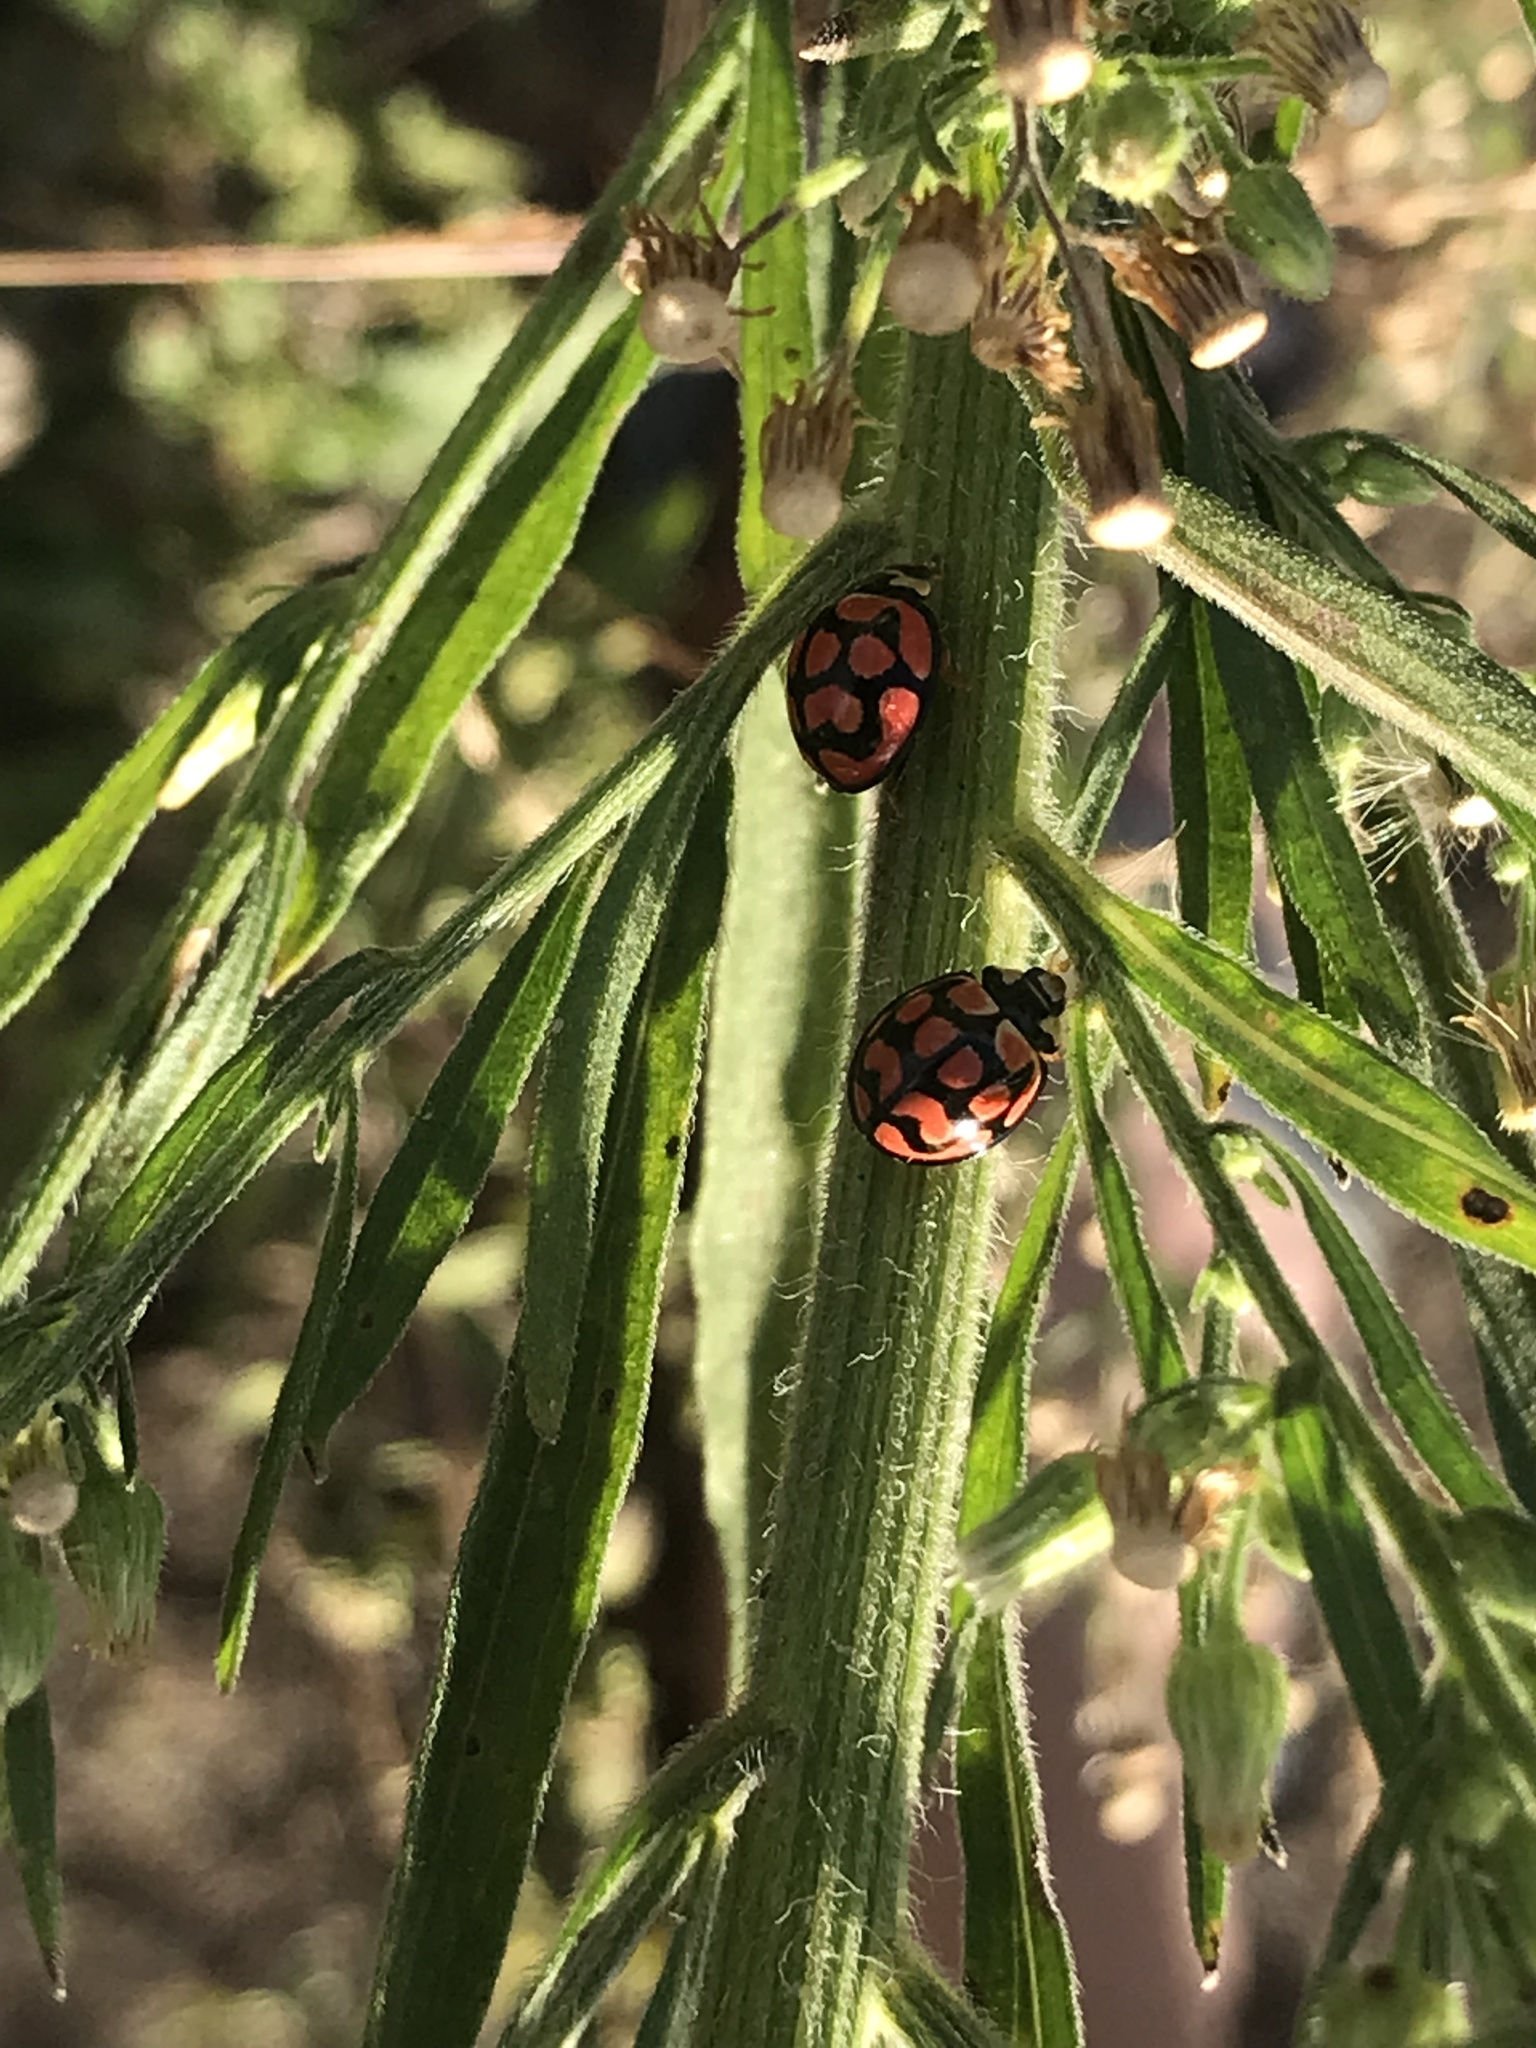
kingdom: Animalia
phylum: Arthropoda
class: Insecta
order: Coleoptera
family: Coccinellidae
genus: Cheilomenes
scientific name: Cheilomenes lunata
